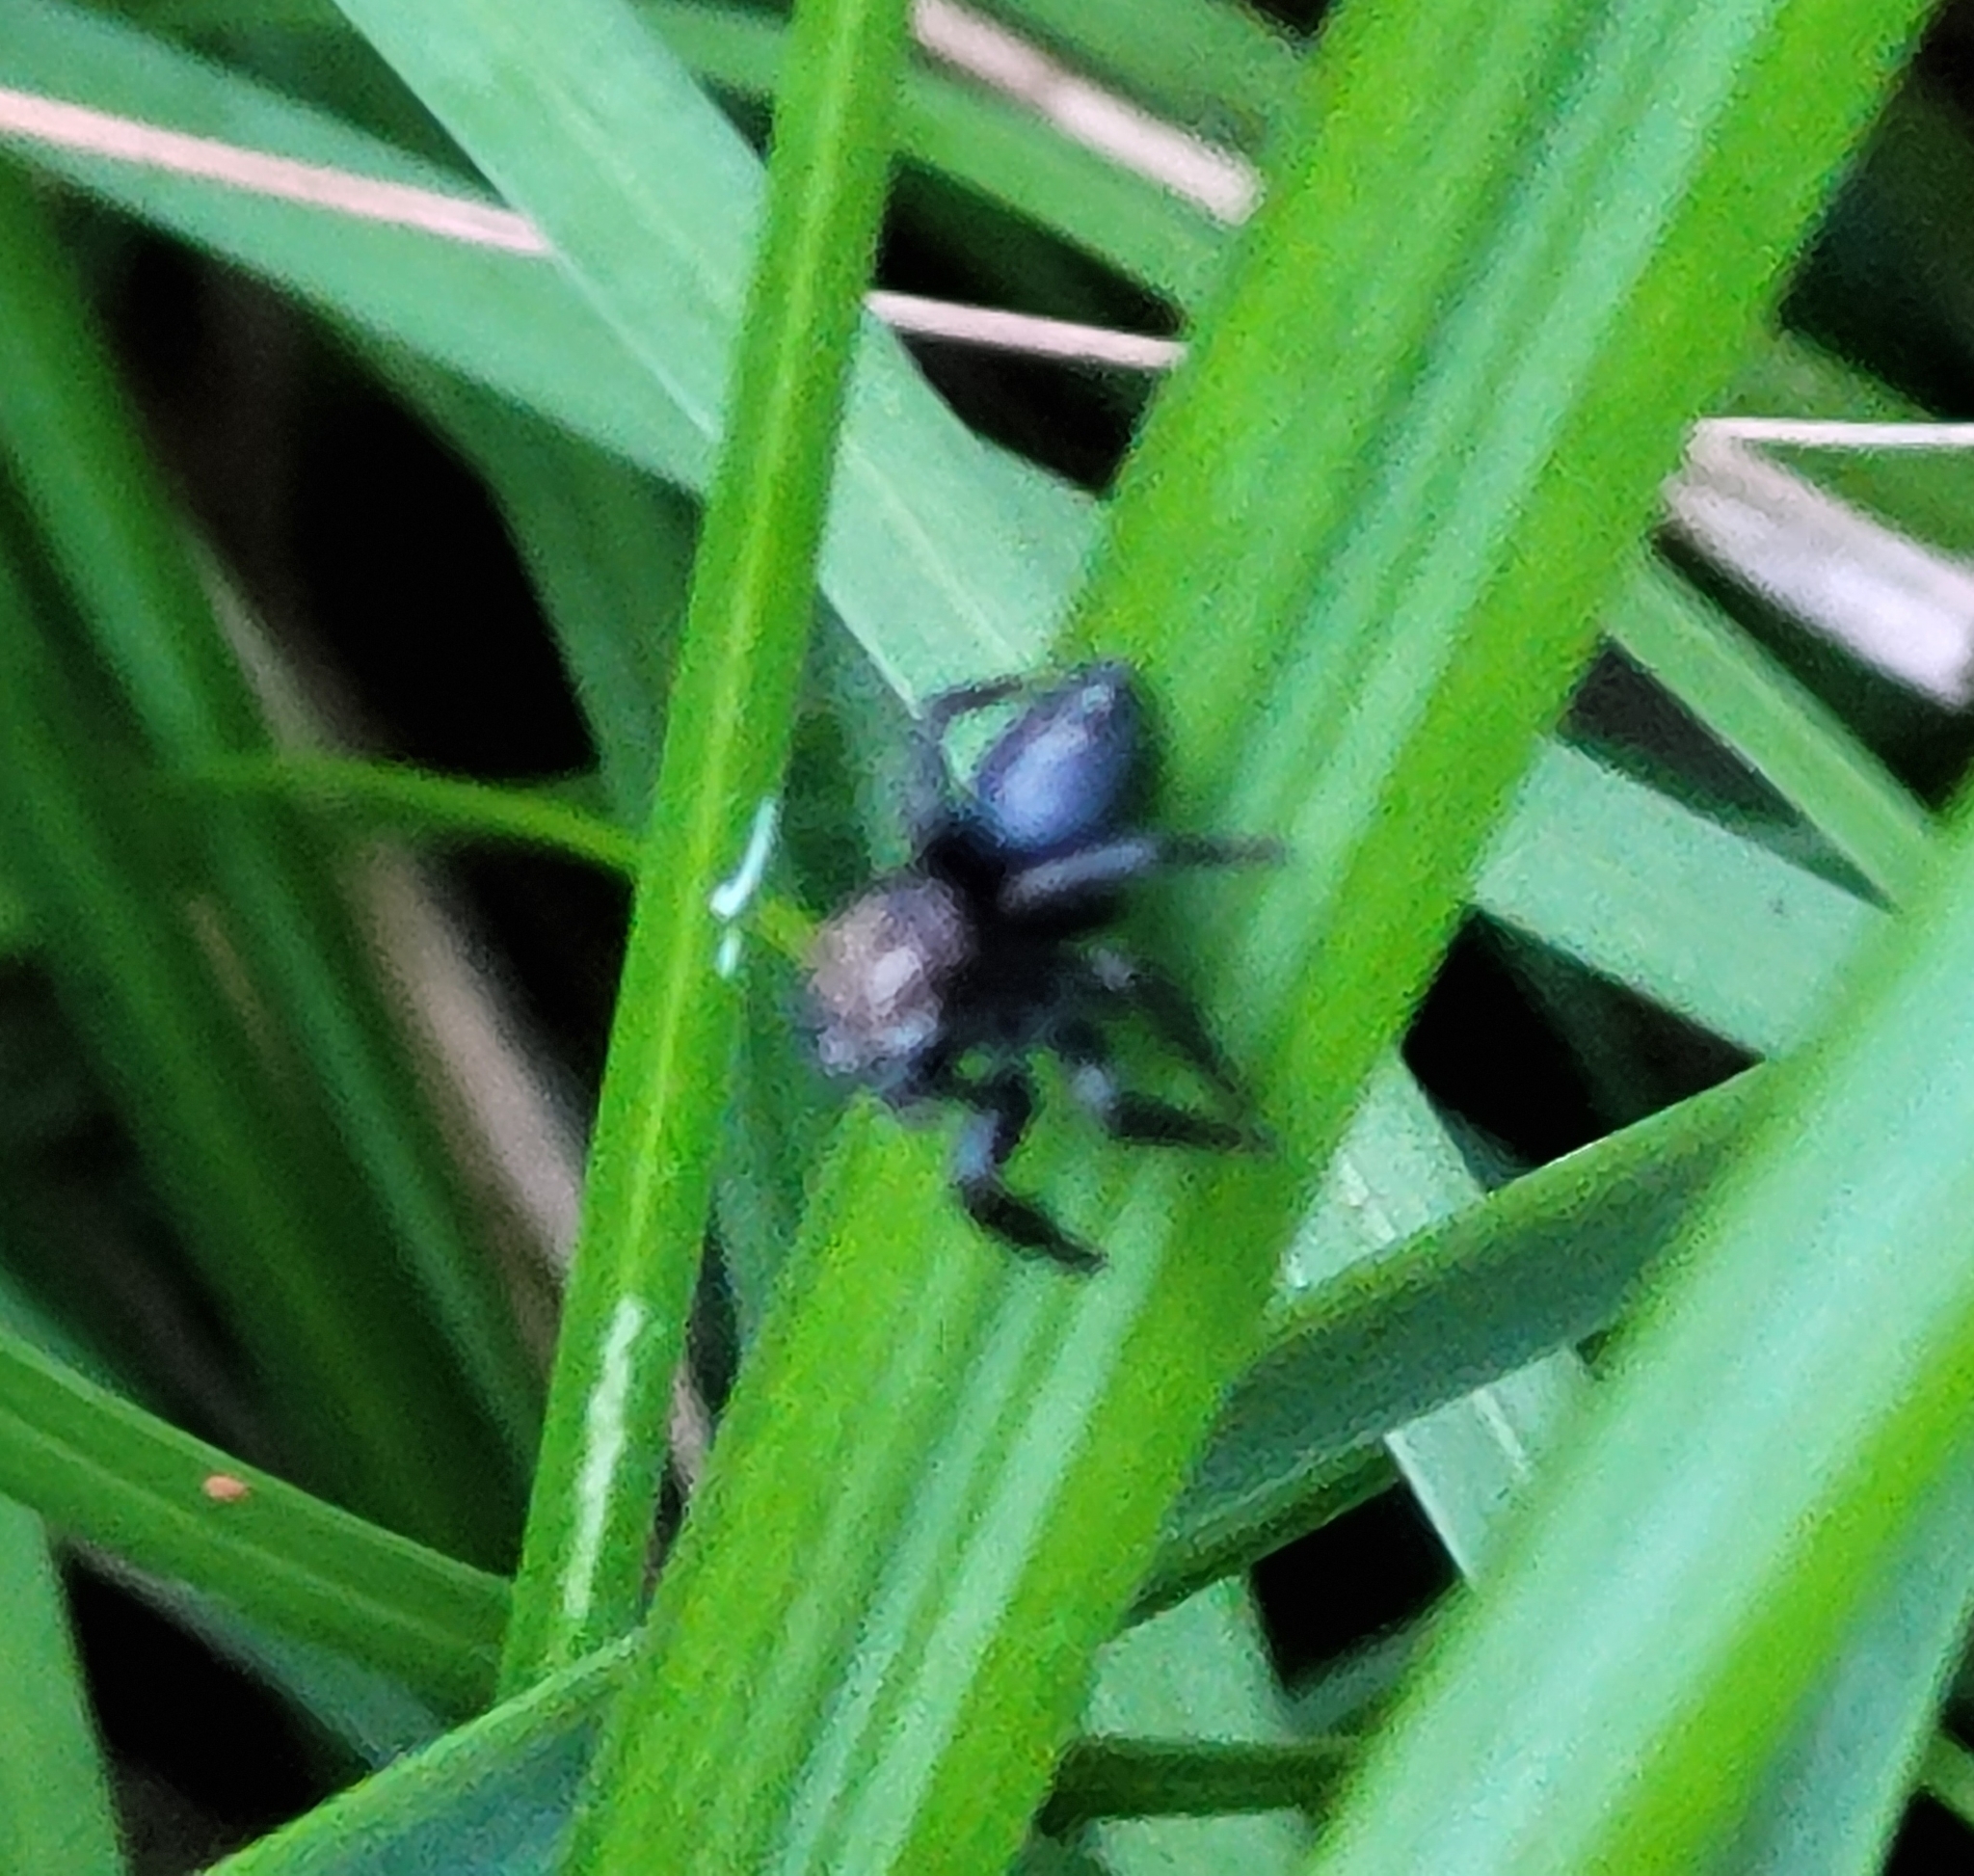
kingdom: Animalia
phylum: Arthropoda
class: Arachnida
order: Araneae
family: Salticidae
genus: Evarcha
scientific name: Evarcha arcuata
